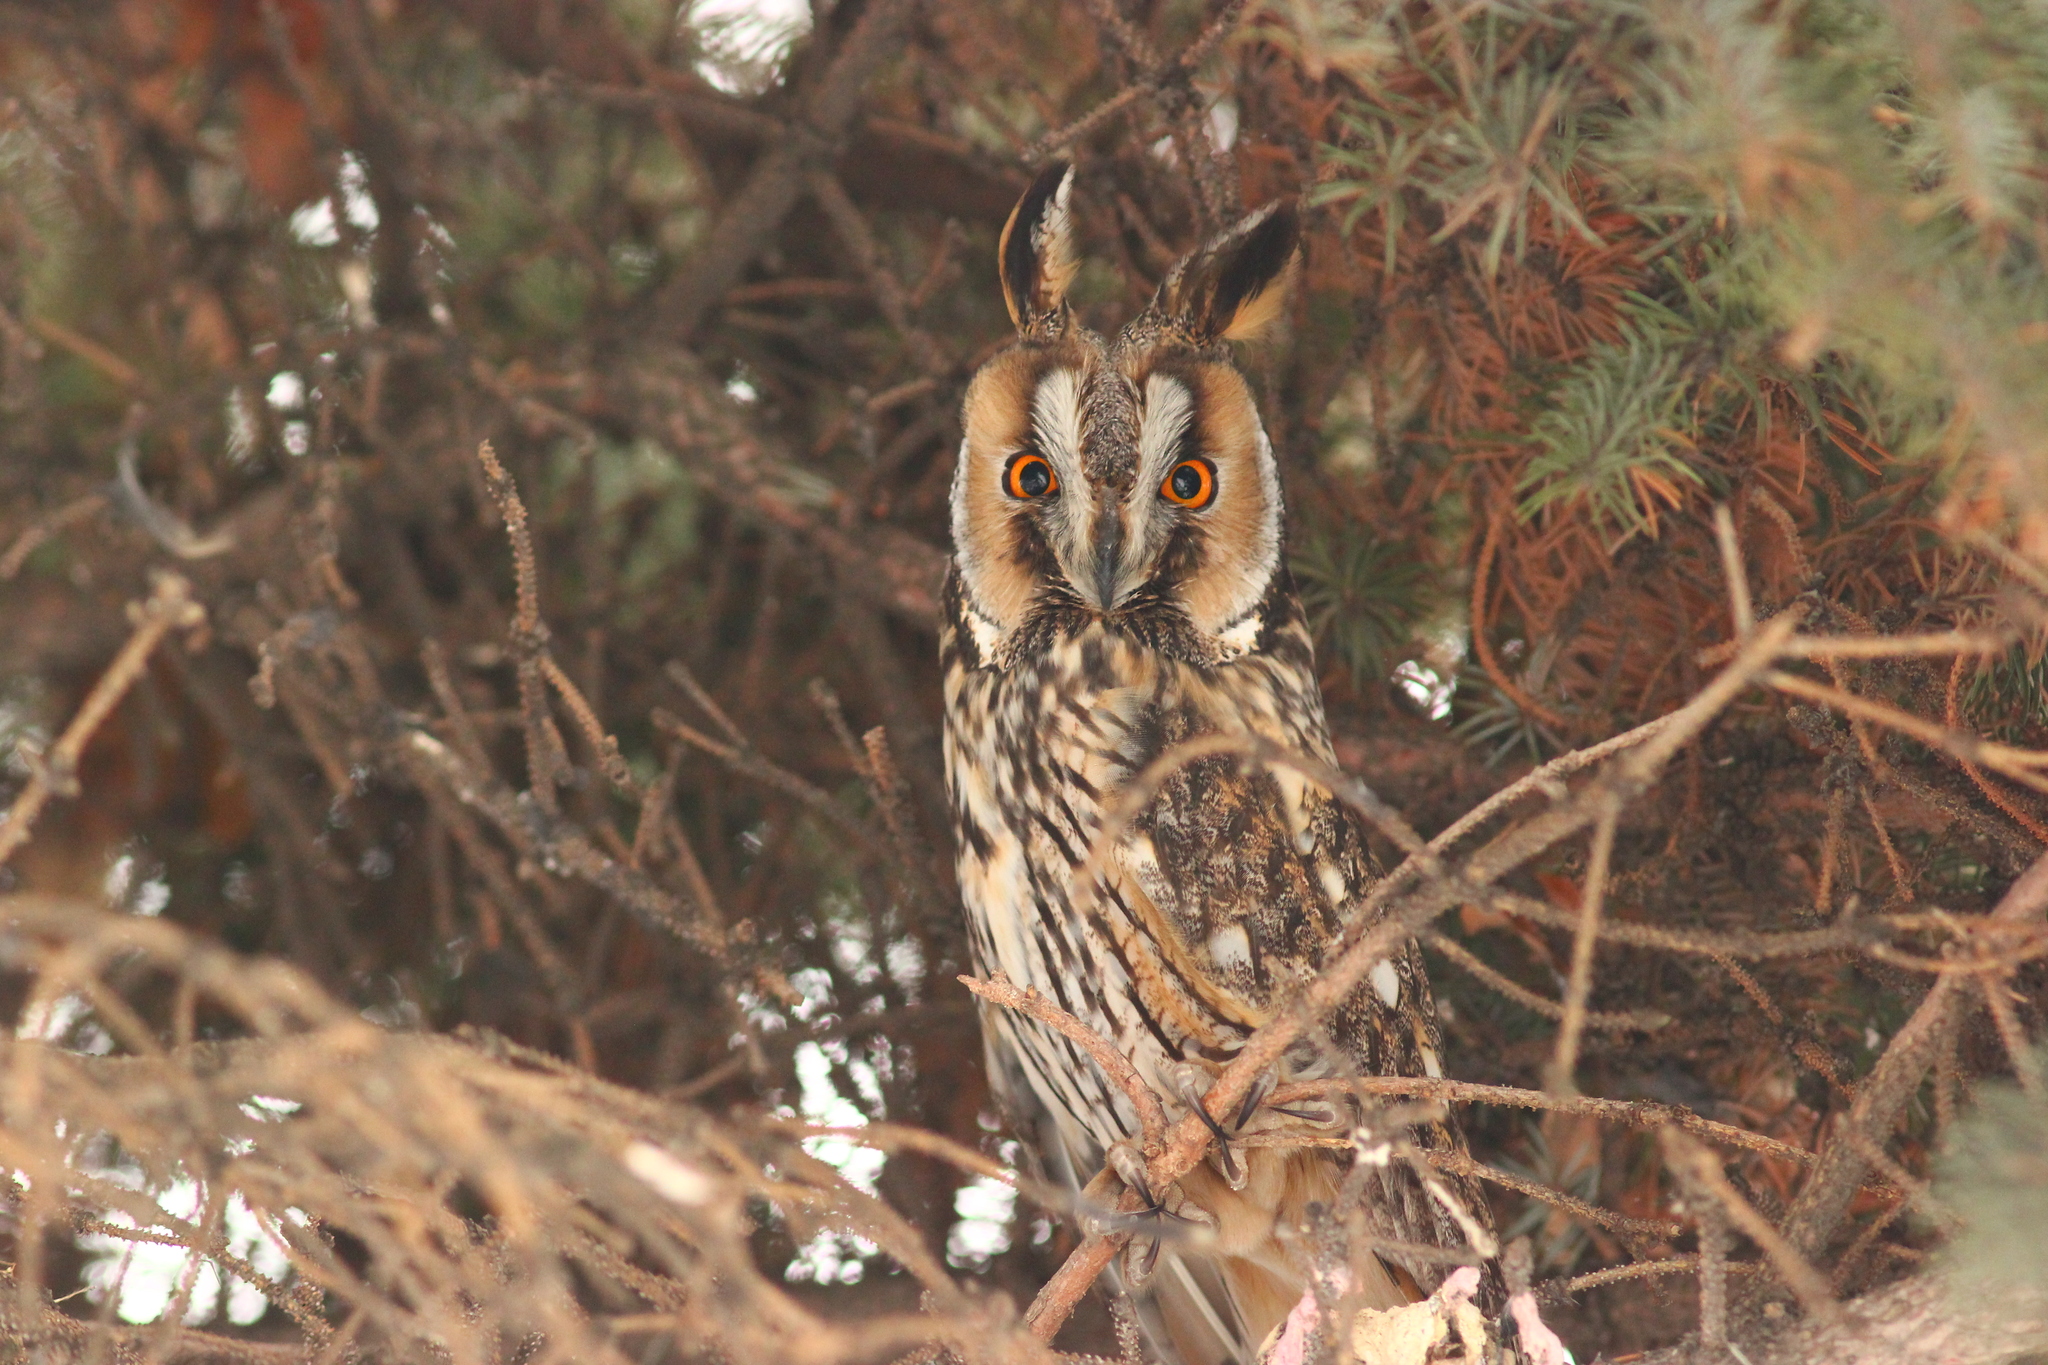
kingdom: Animalia
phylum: Chordata
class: Aves
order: Strigiformes
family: Strigidae
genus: Asio
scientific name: Asio otus
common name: Long-eared owl
